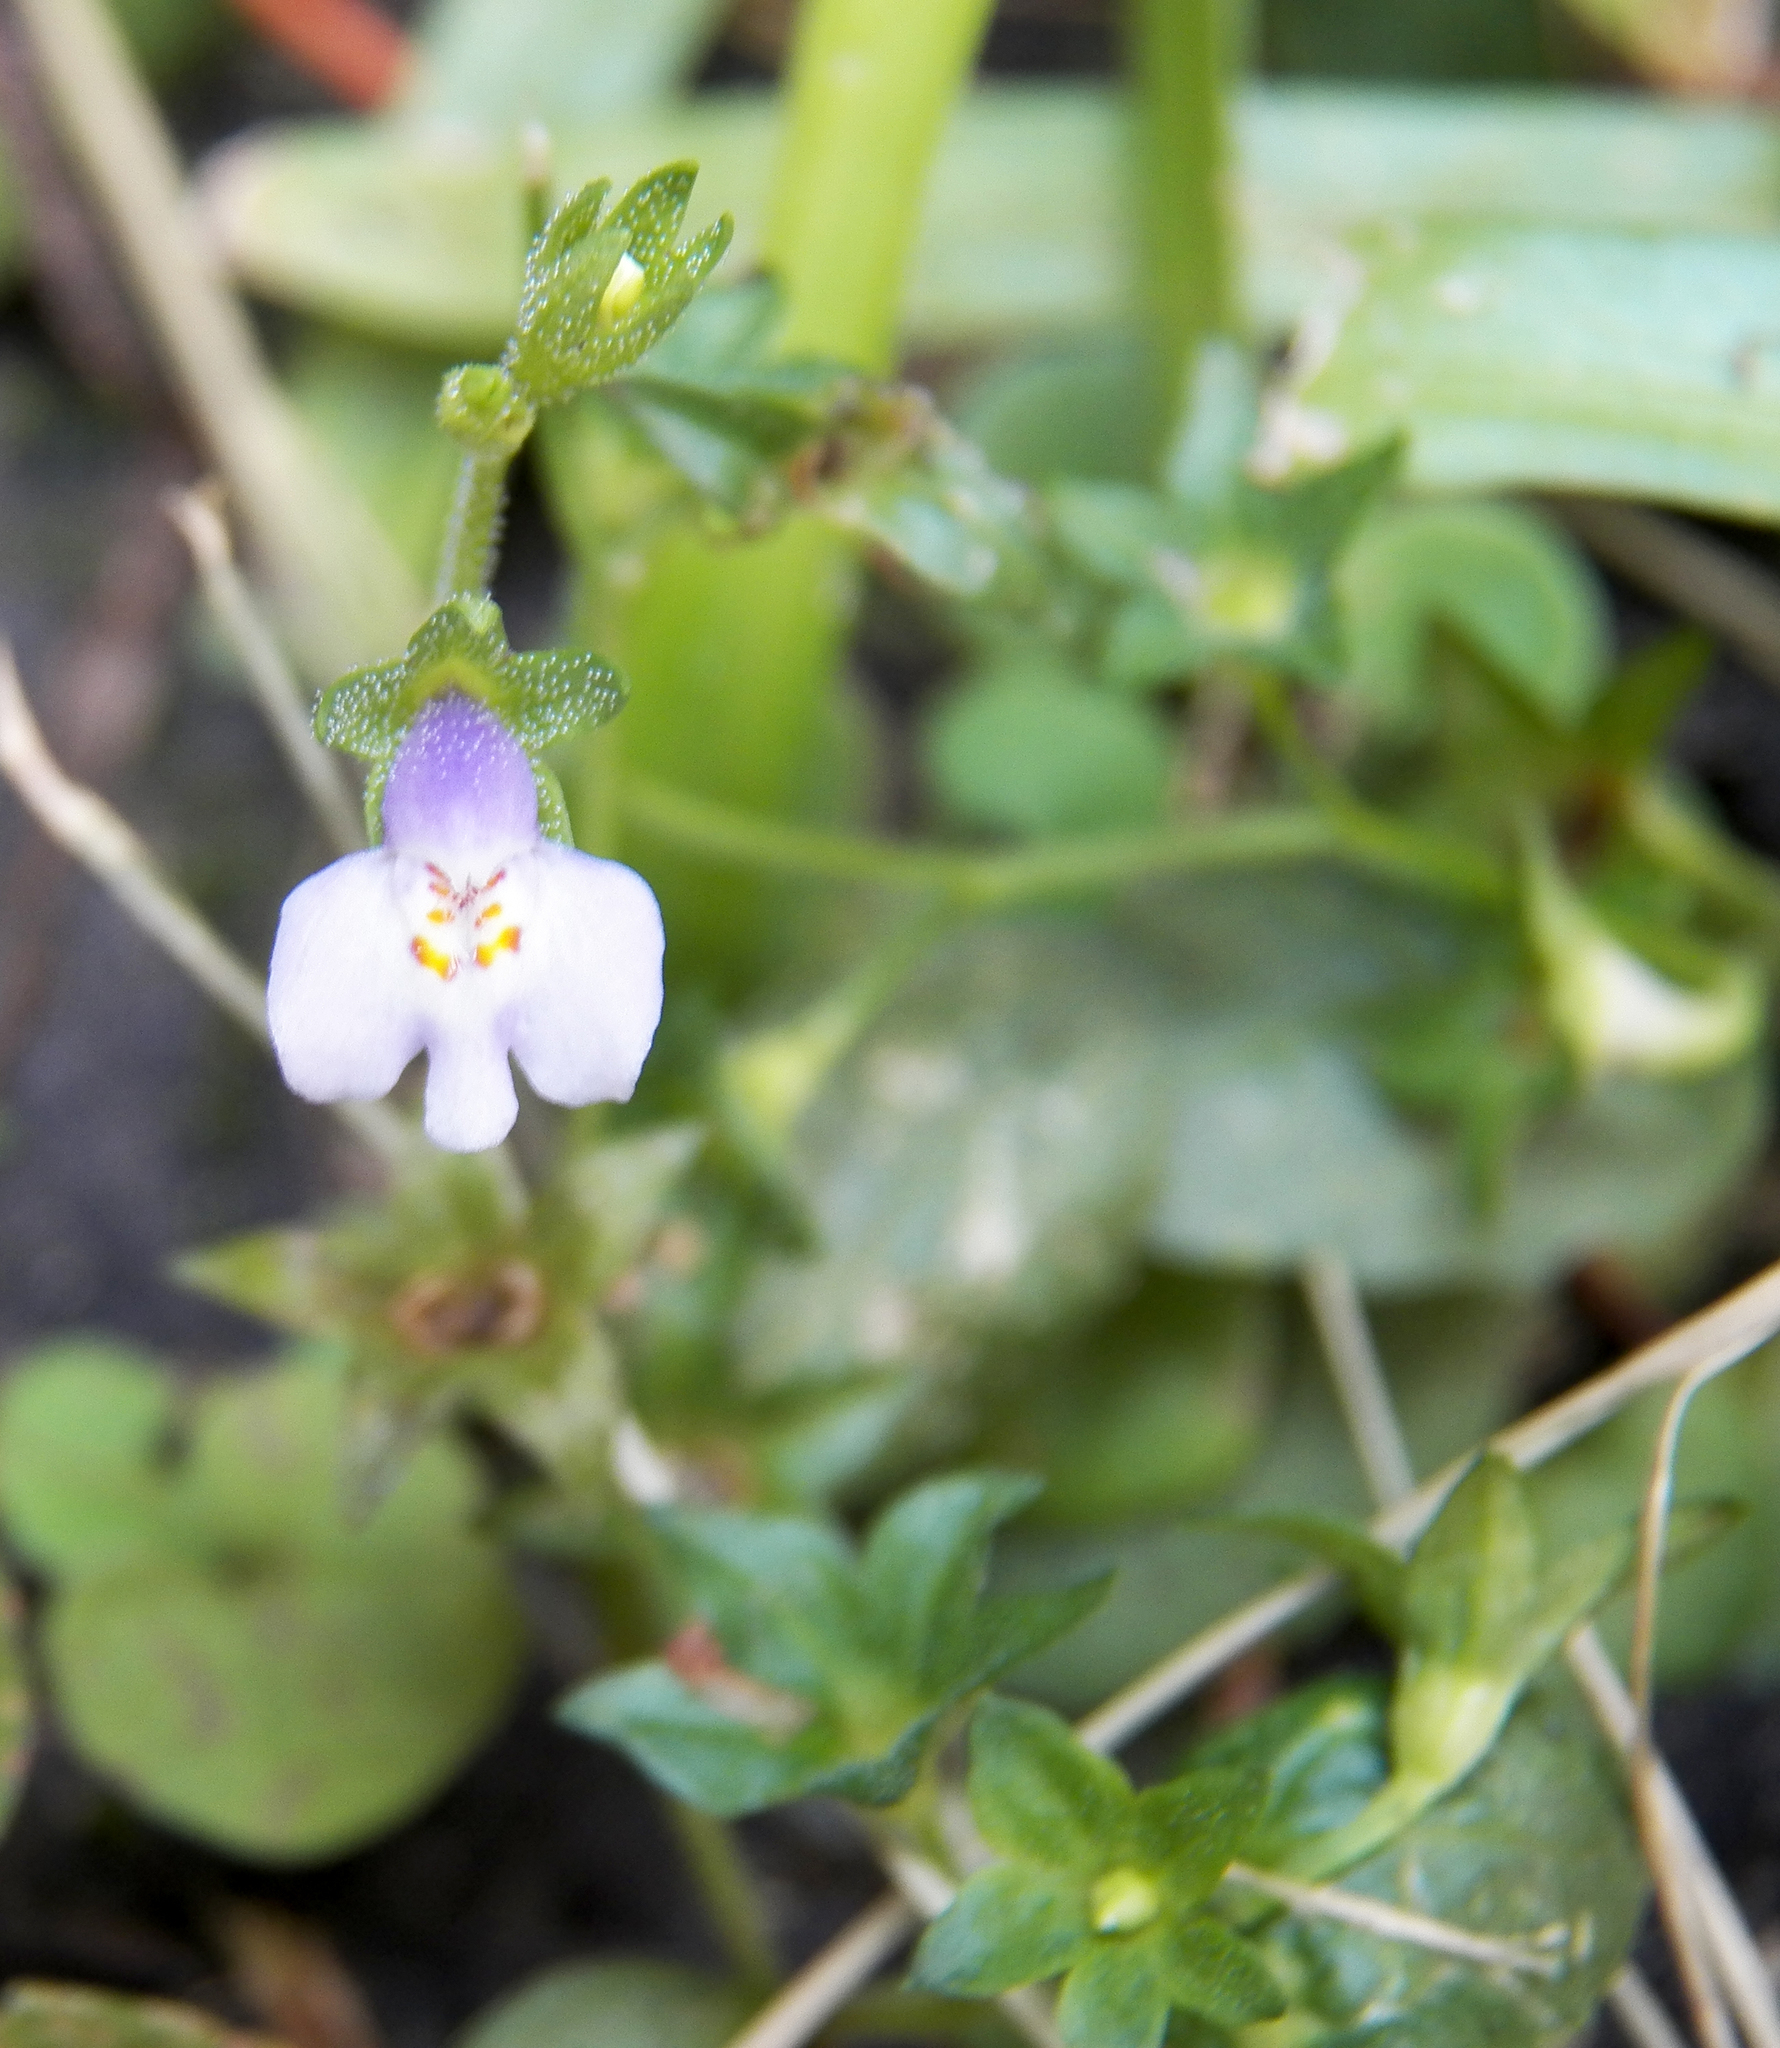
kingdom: Plantae
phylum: Tracheophyta
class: Magnoliopsida
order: Lamiales
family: Mazaceae
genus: Mazus
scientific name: Mazus pumilus
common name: Japanese mazus
